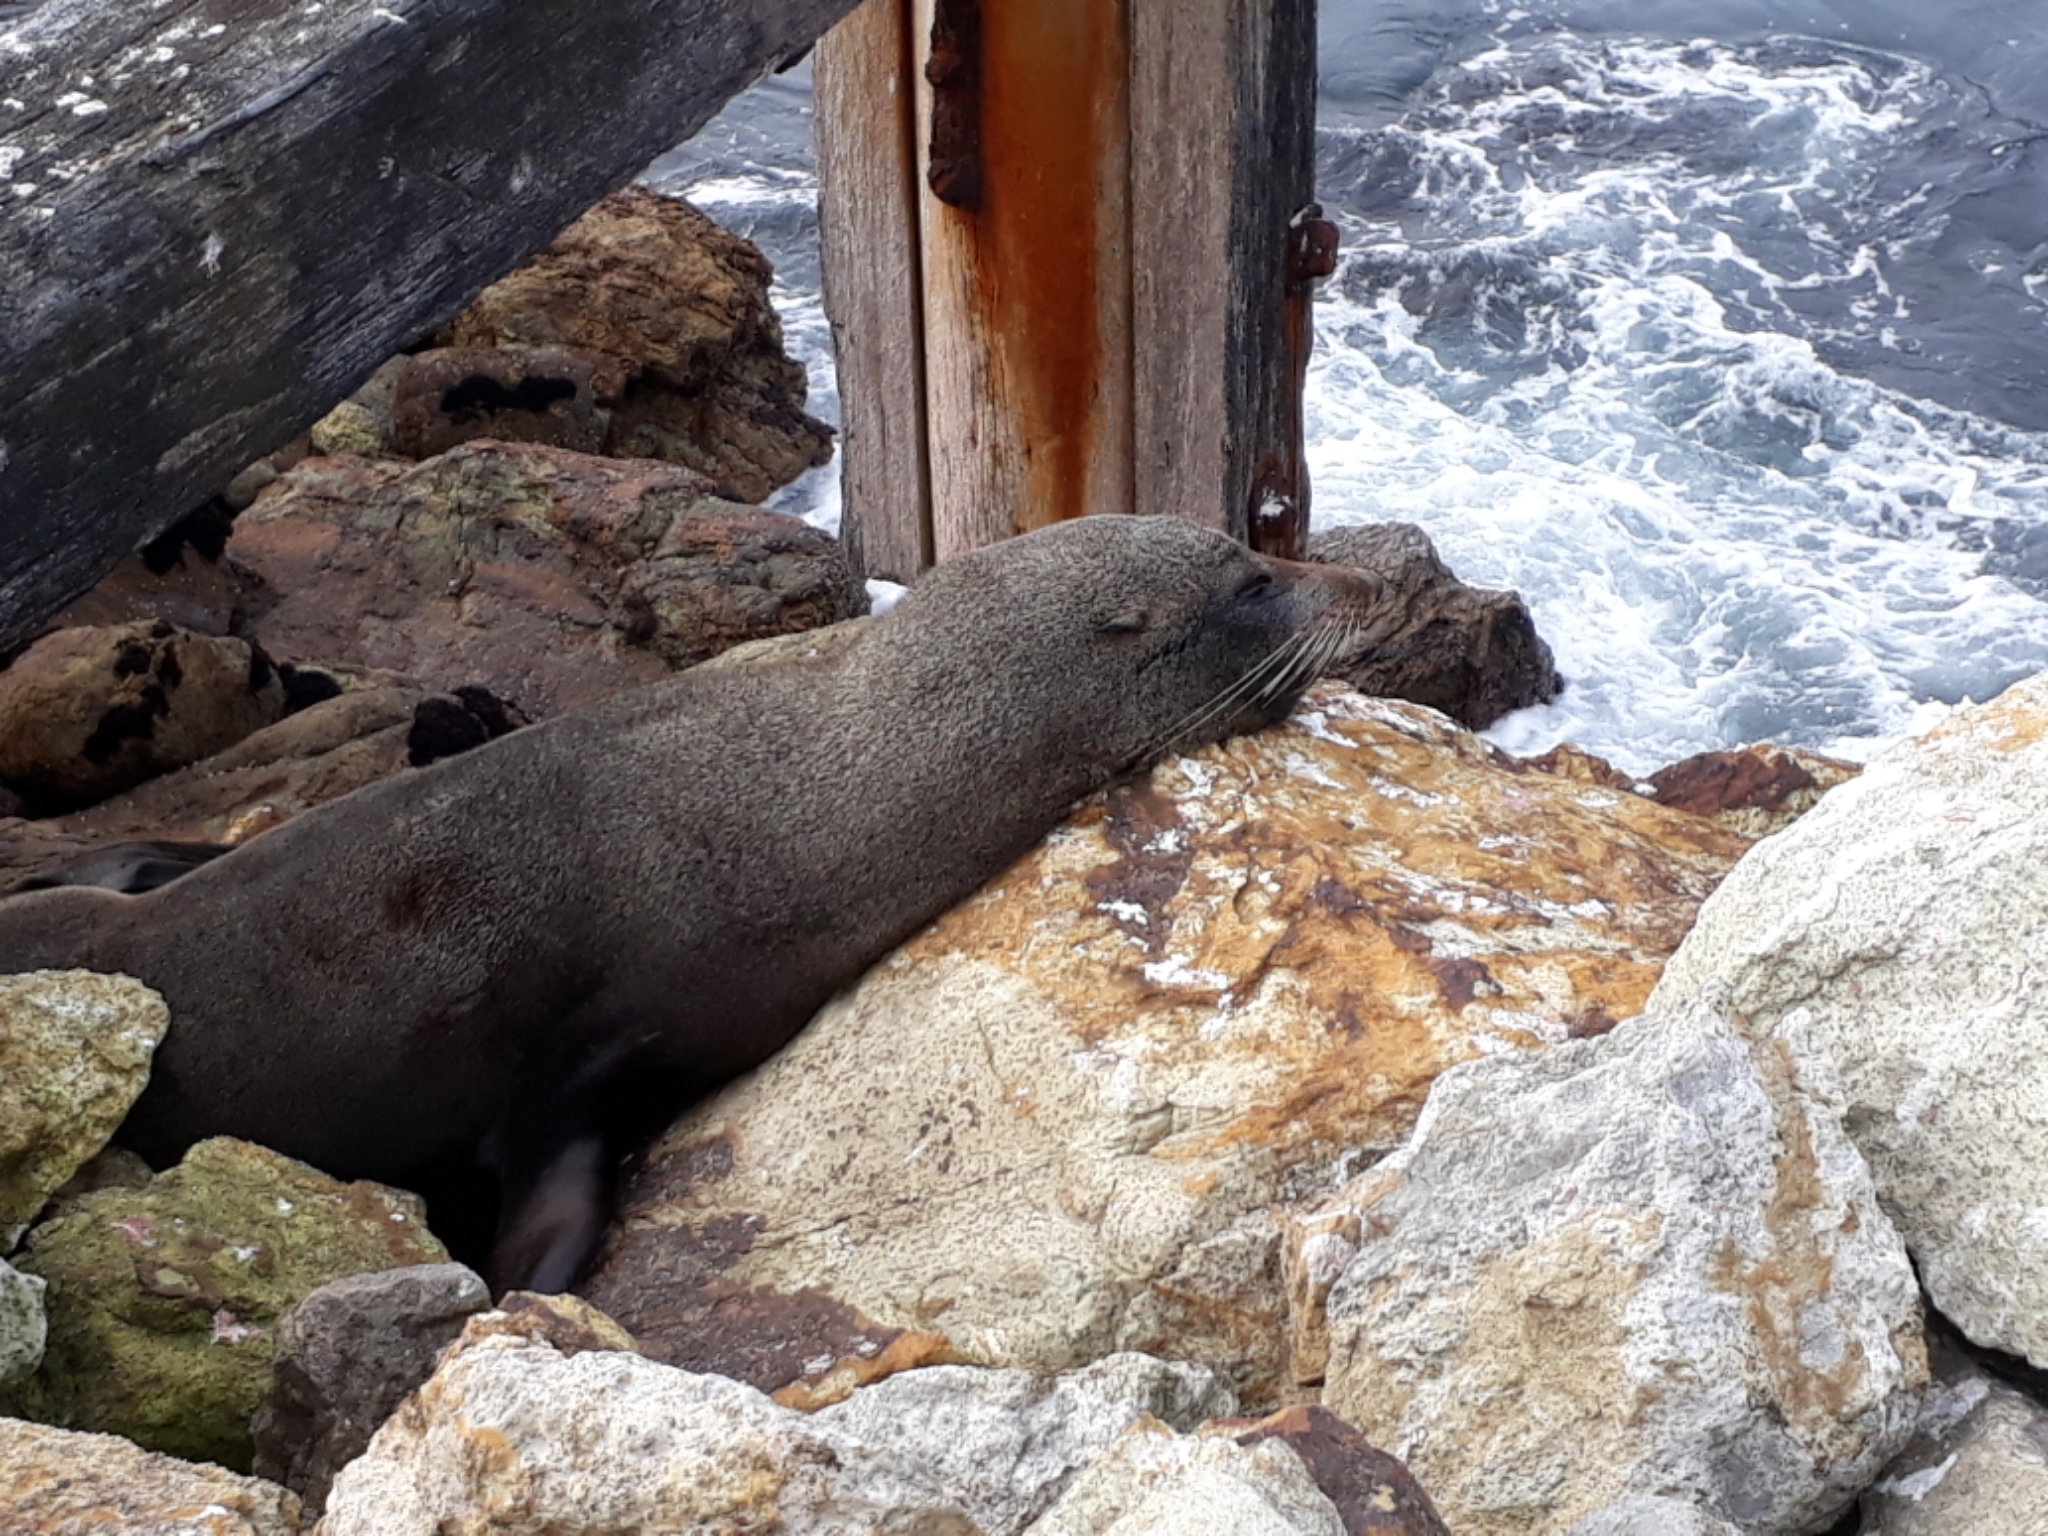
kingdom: Animalia
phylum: Chordata
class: Mammalia
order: Carnivora
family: Otariidae
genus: Arctocephalus
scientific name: Arctocephalus forsteri
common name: New zealand fur seal
